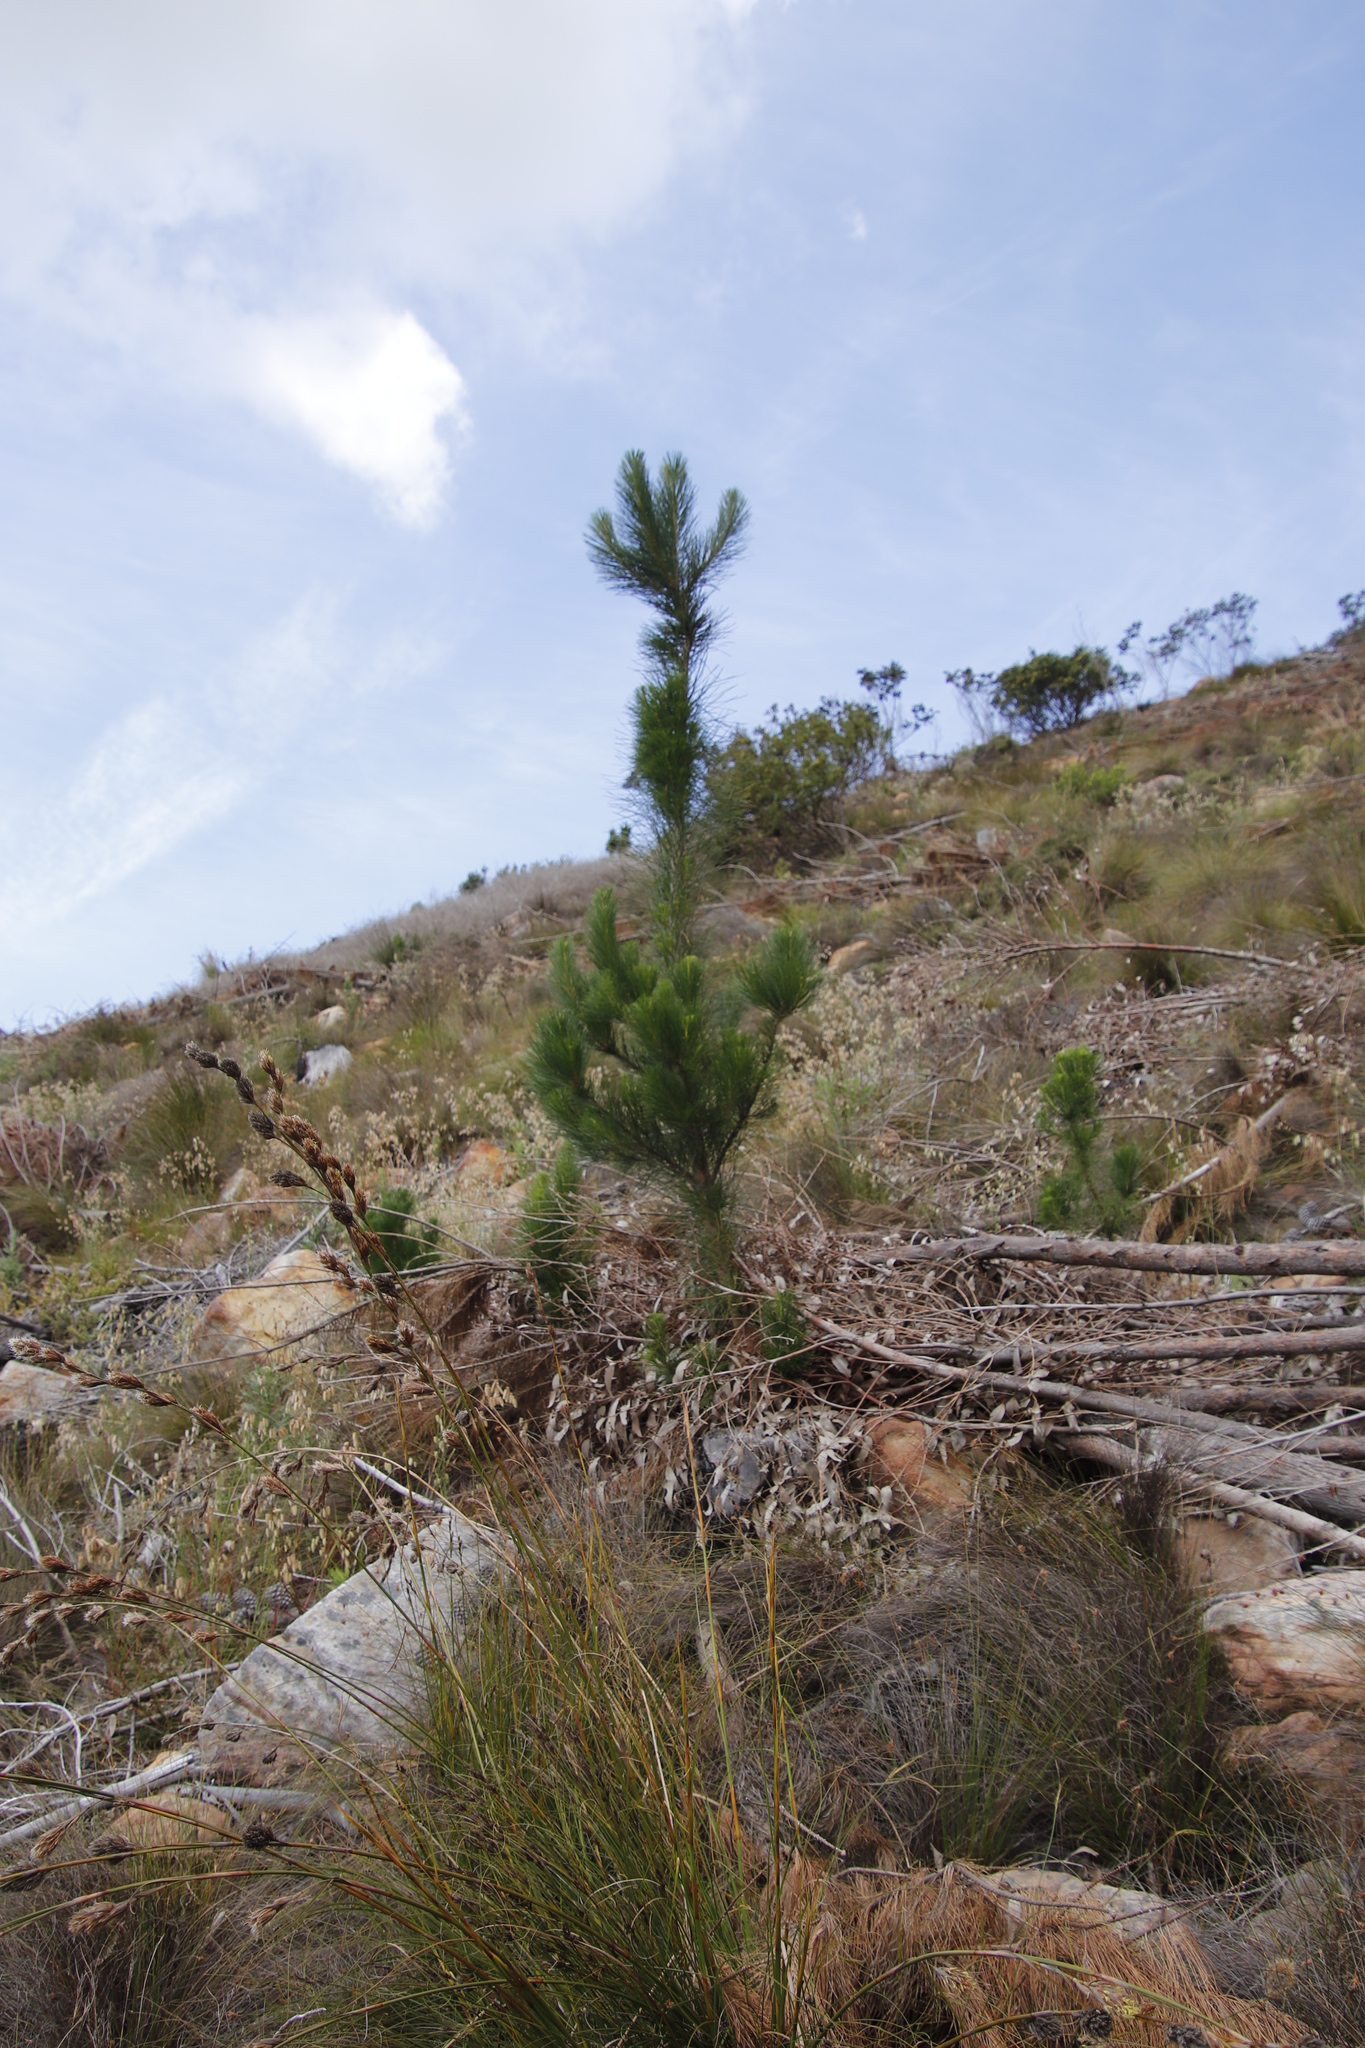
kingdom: Plantae
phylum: Tracheophyta
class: Pinopsida
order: Pinales
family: Pinaceae
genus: Pinus
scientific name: Pinus radiata
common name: Monterey pine
